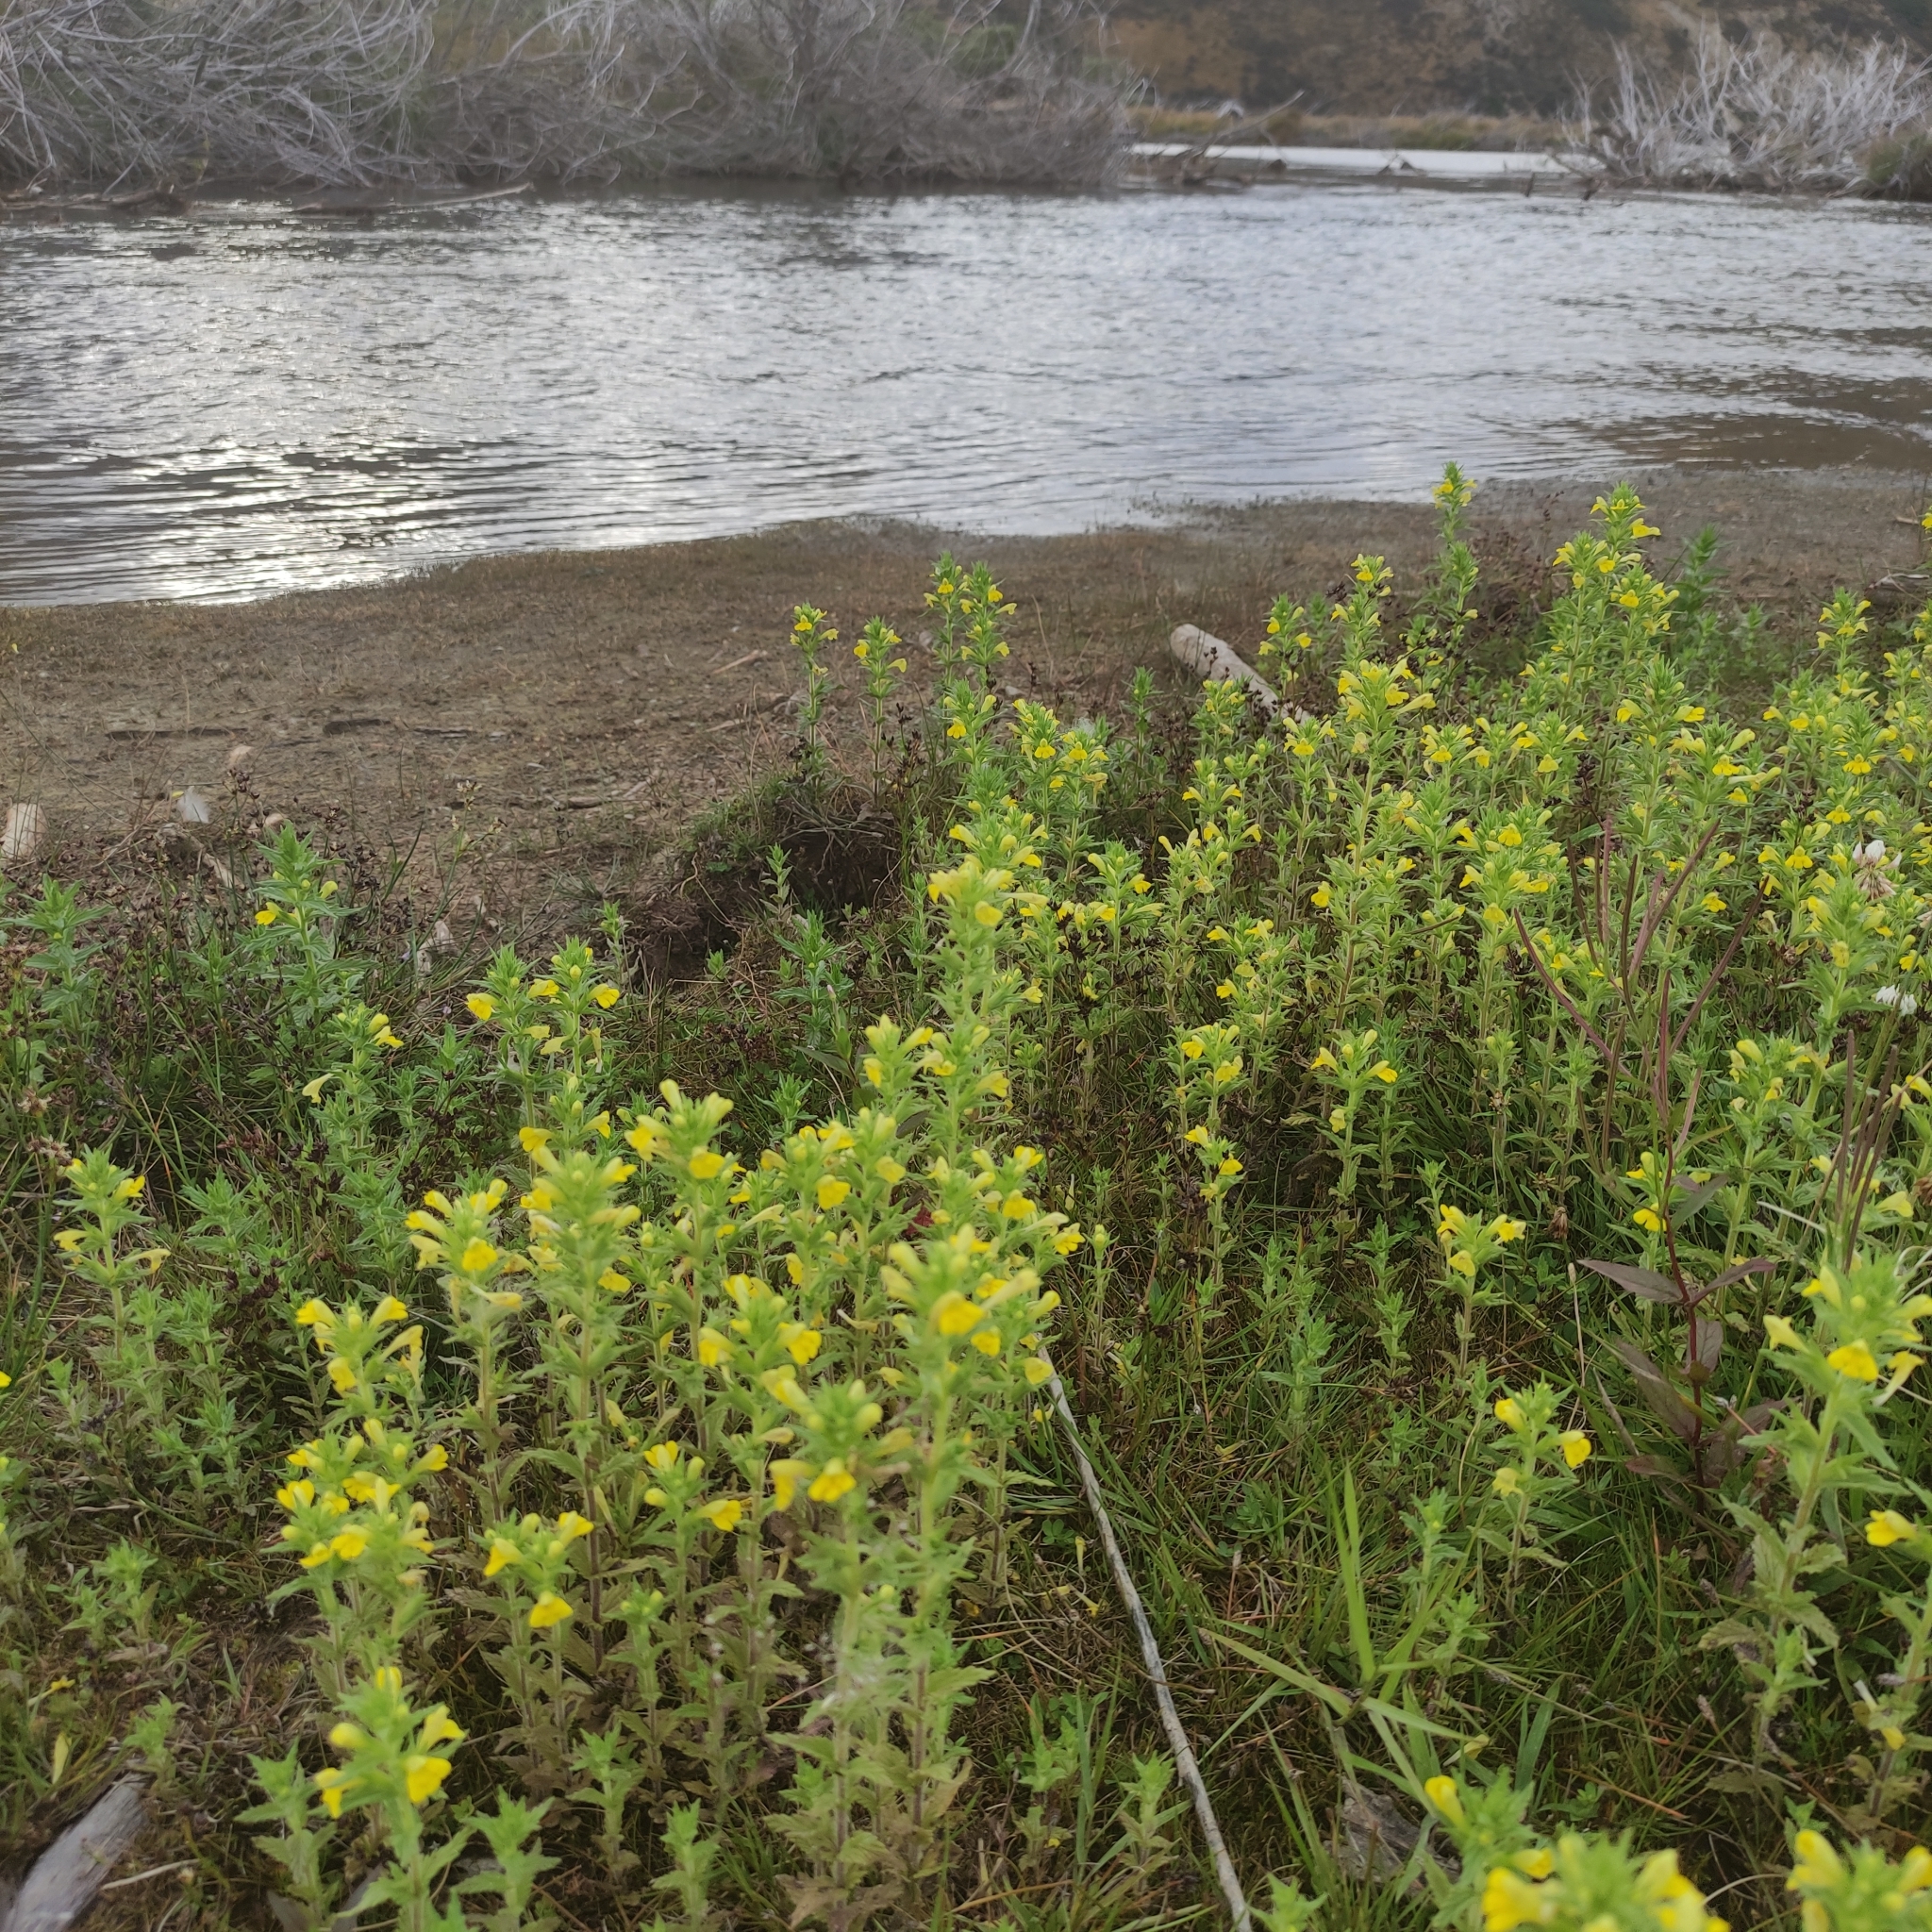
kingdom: Plantae
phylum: Tracheophyta
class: Magnoliopsida
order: Lamiales
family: Orobanchaceae
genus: Bellardia
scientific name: Bellardia viscosa
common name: Sticky parentucellia
